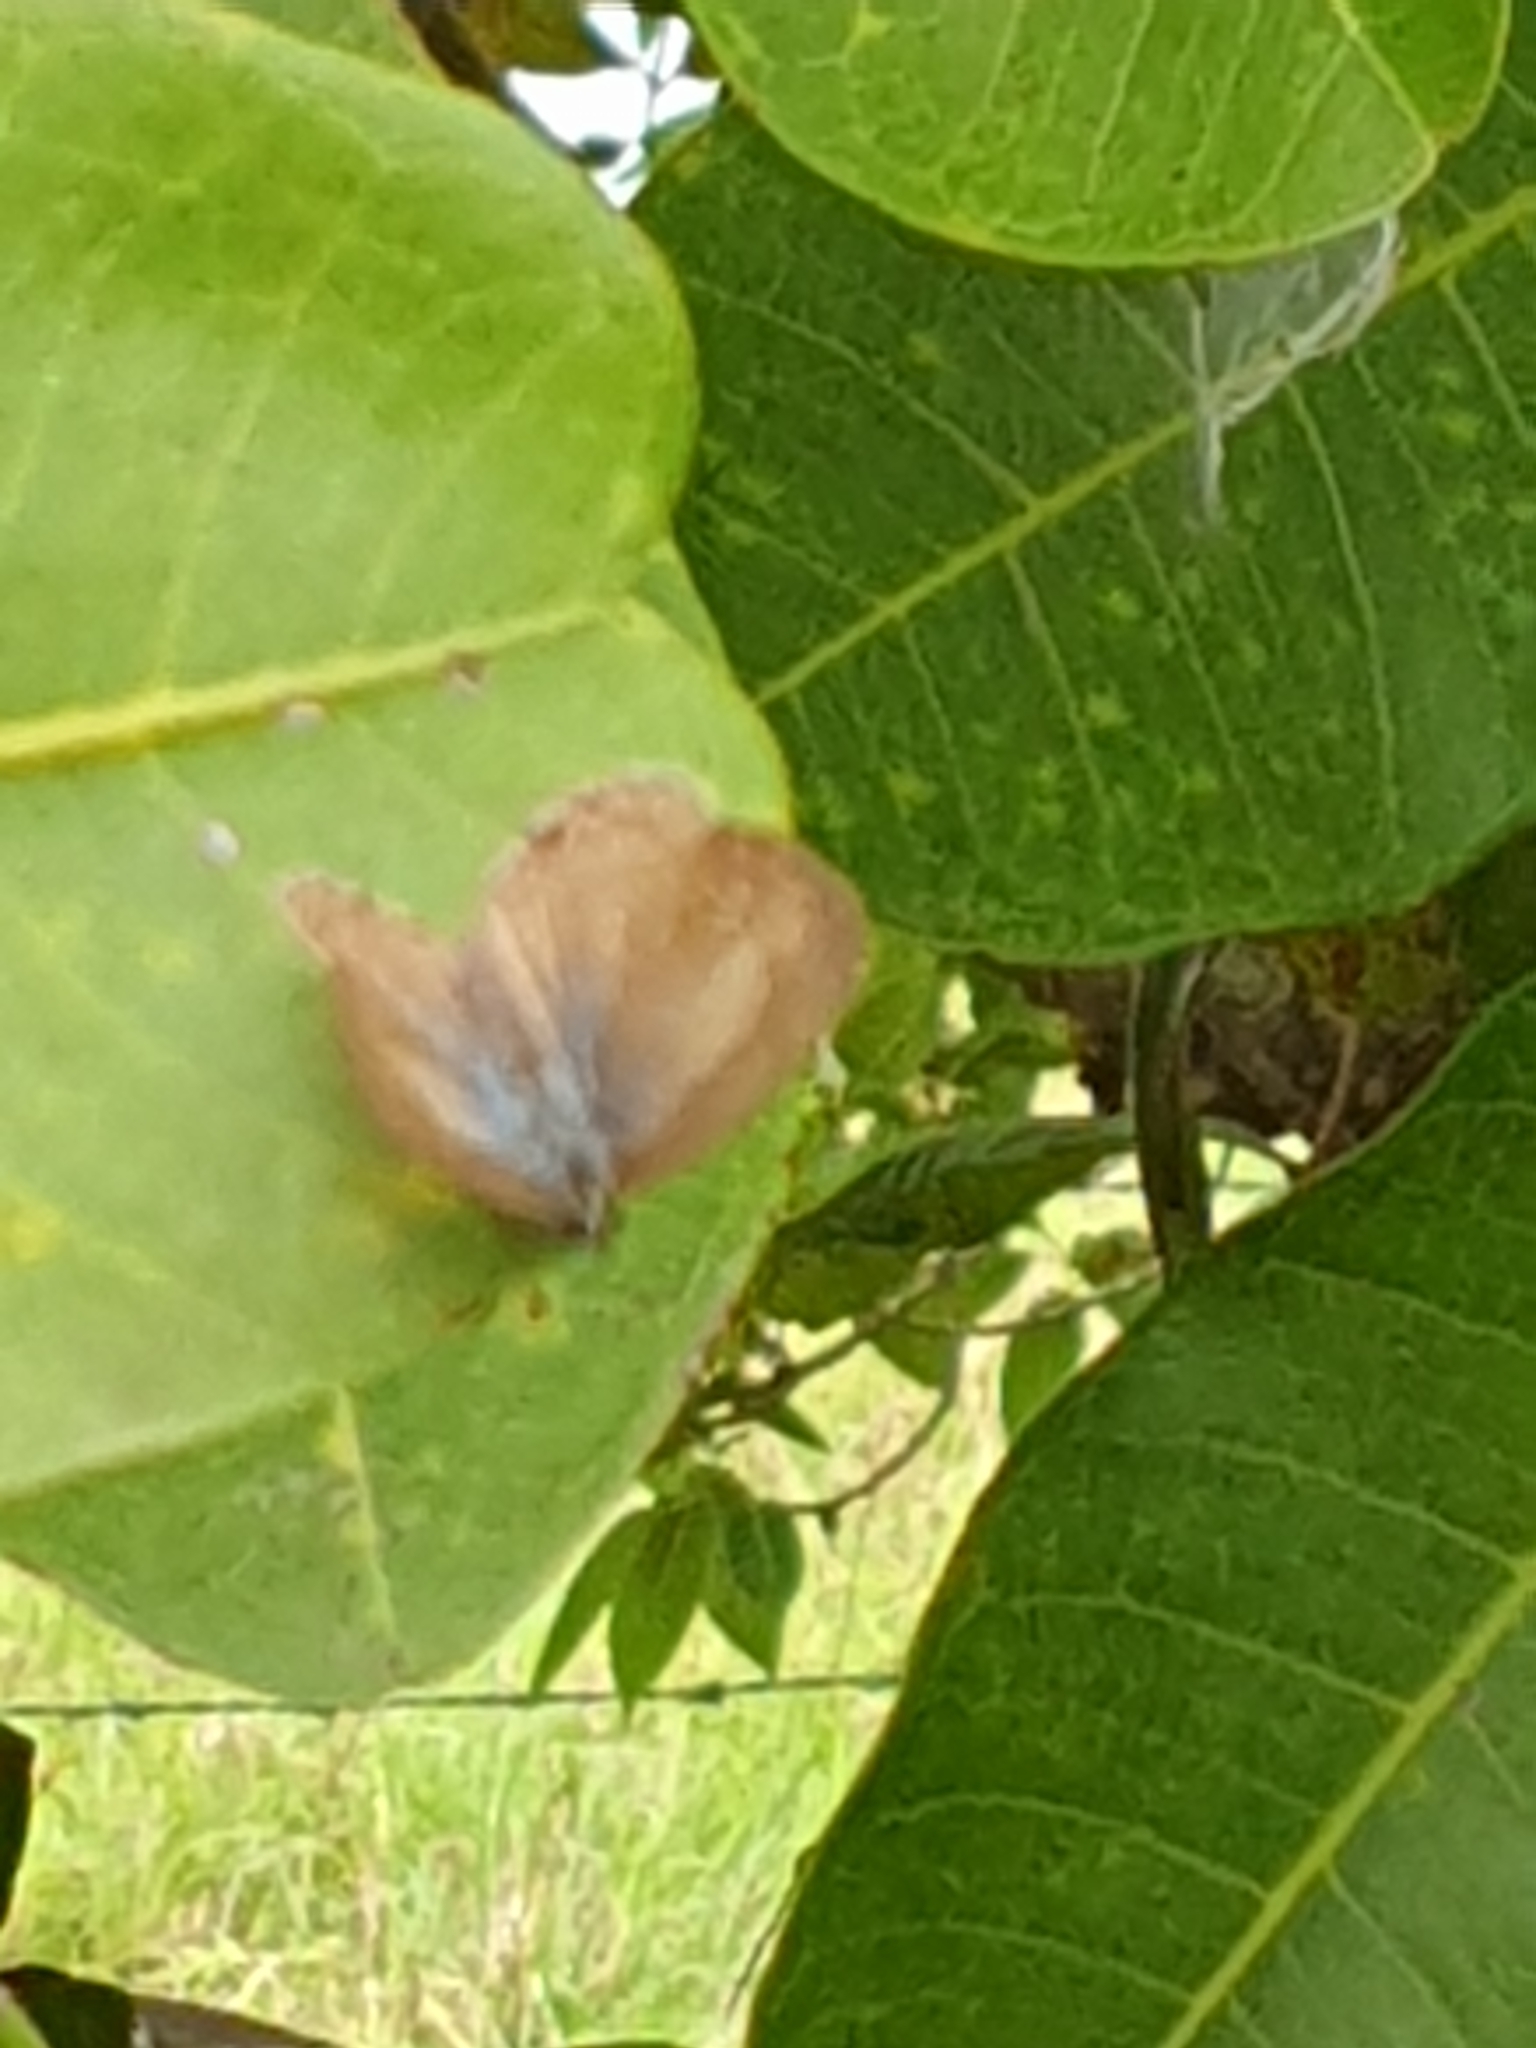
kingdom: Animalia
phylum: Arthropoda
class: Insecta
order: Lepidoptera
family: Lycaenidae
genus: Nacaduba
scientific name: Nacaduba berenice
